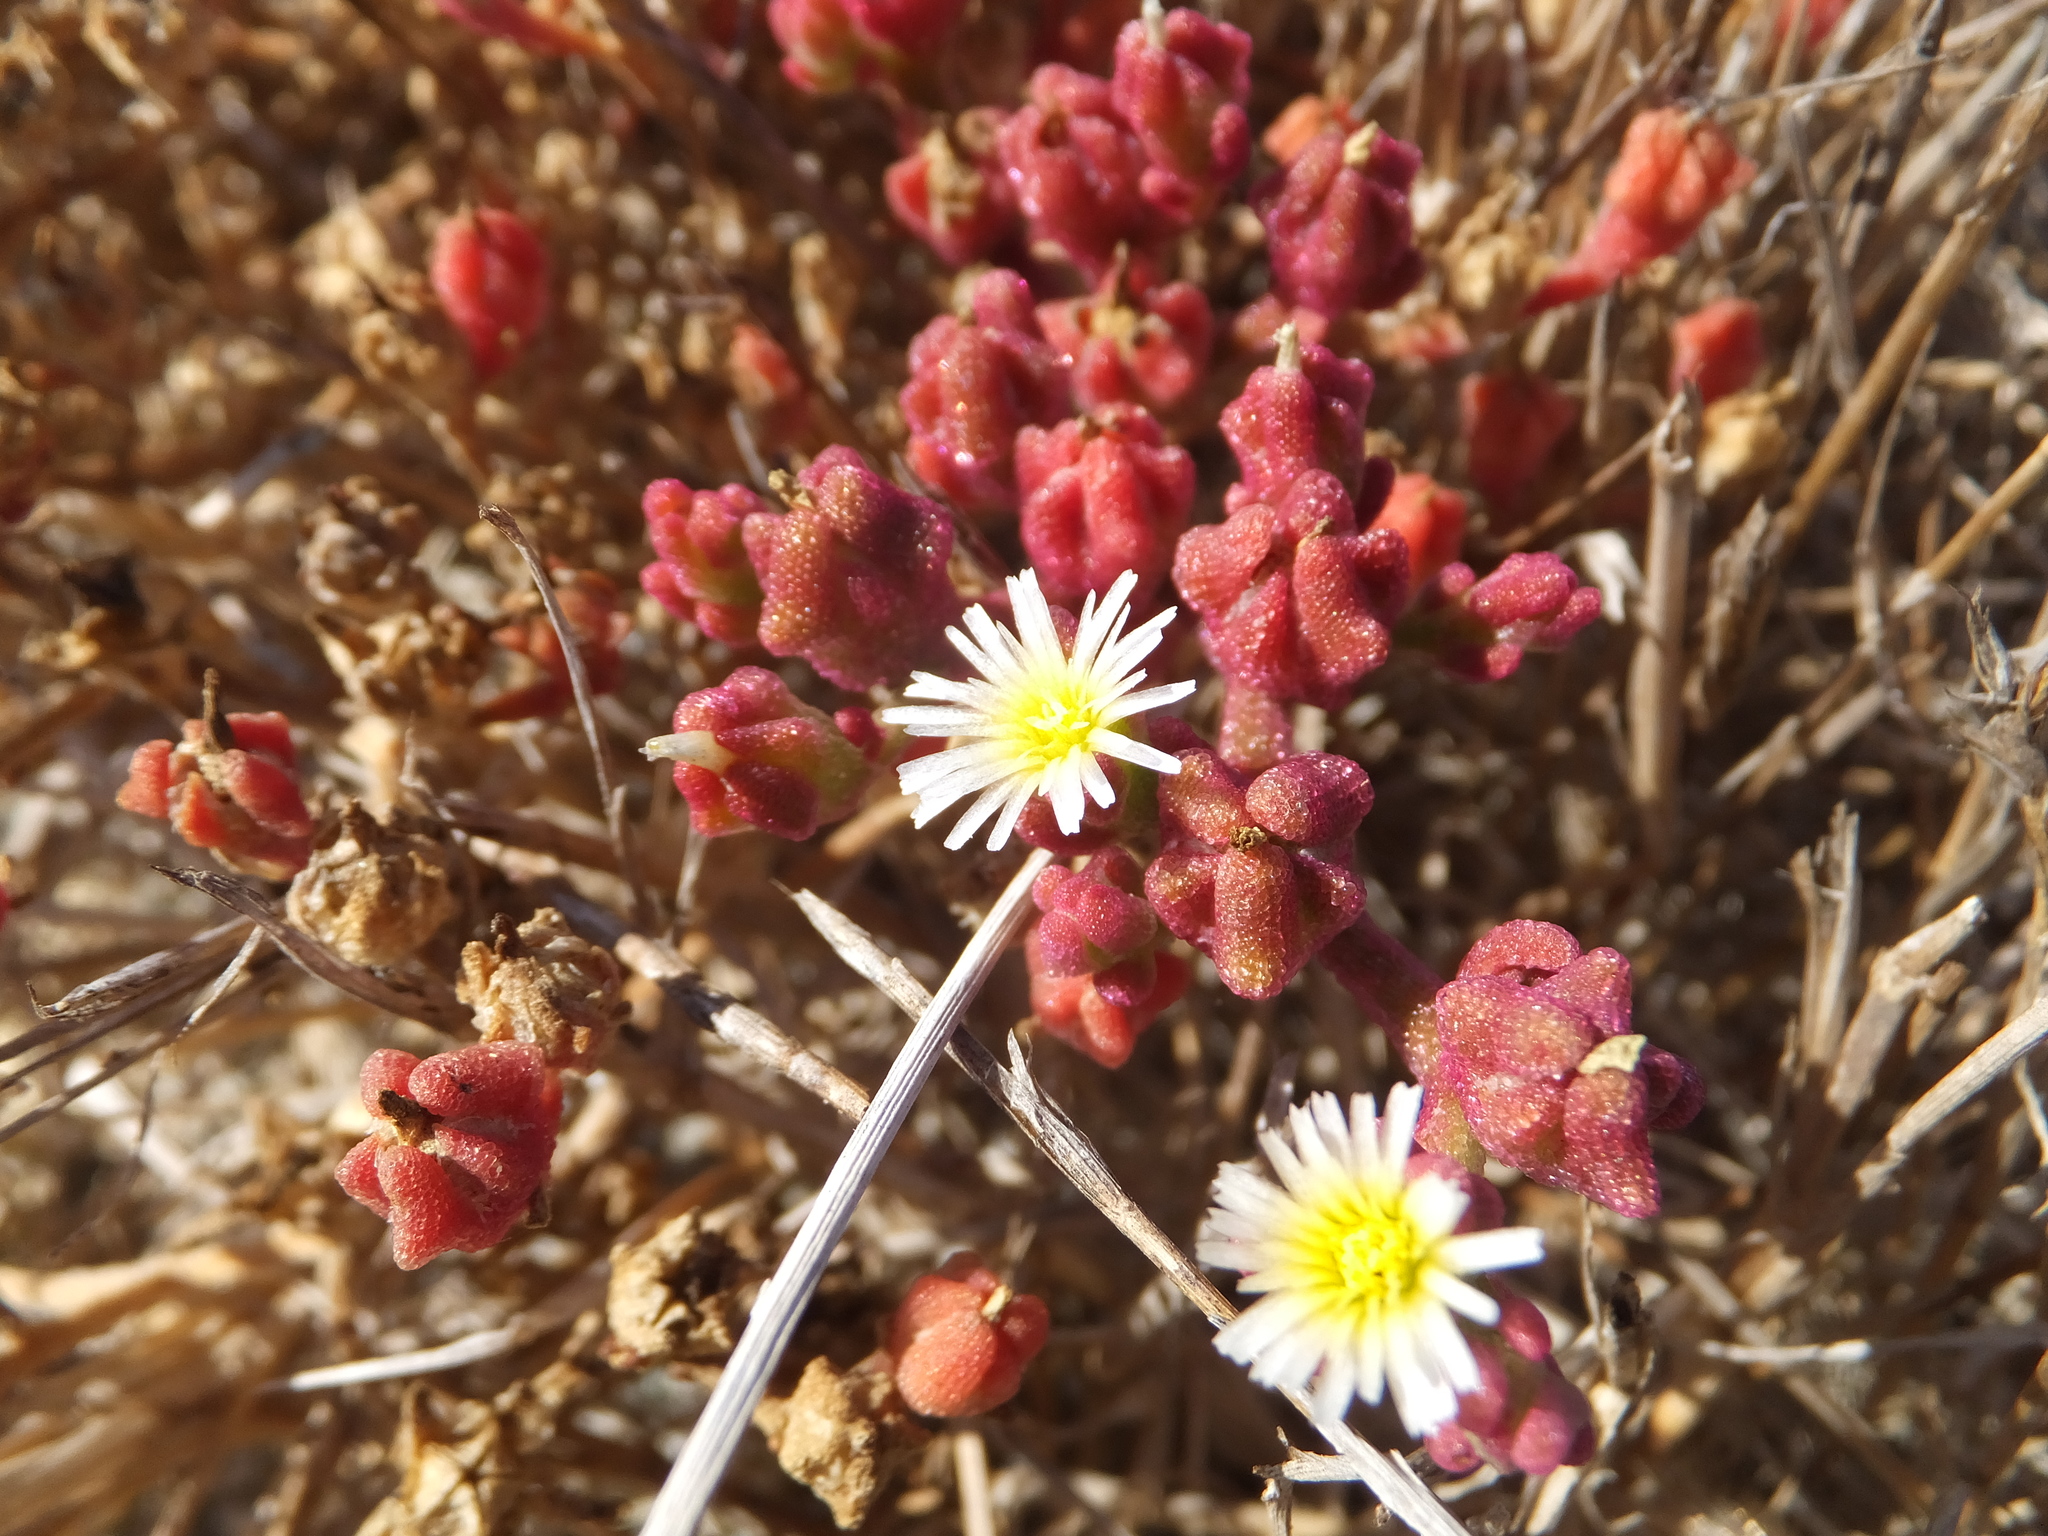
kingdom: Plantae
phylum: Tracheophyta
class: Magnoliopsida
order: Caryophyllales
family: Aizoaceae
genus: Mesembryanthemum
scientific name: Mesembryanthemum nodiflorum
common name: Slenderleaf iceplant
